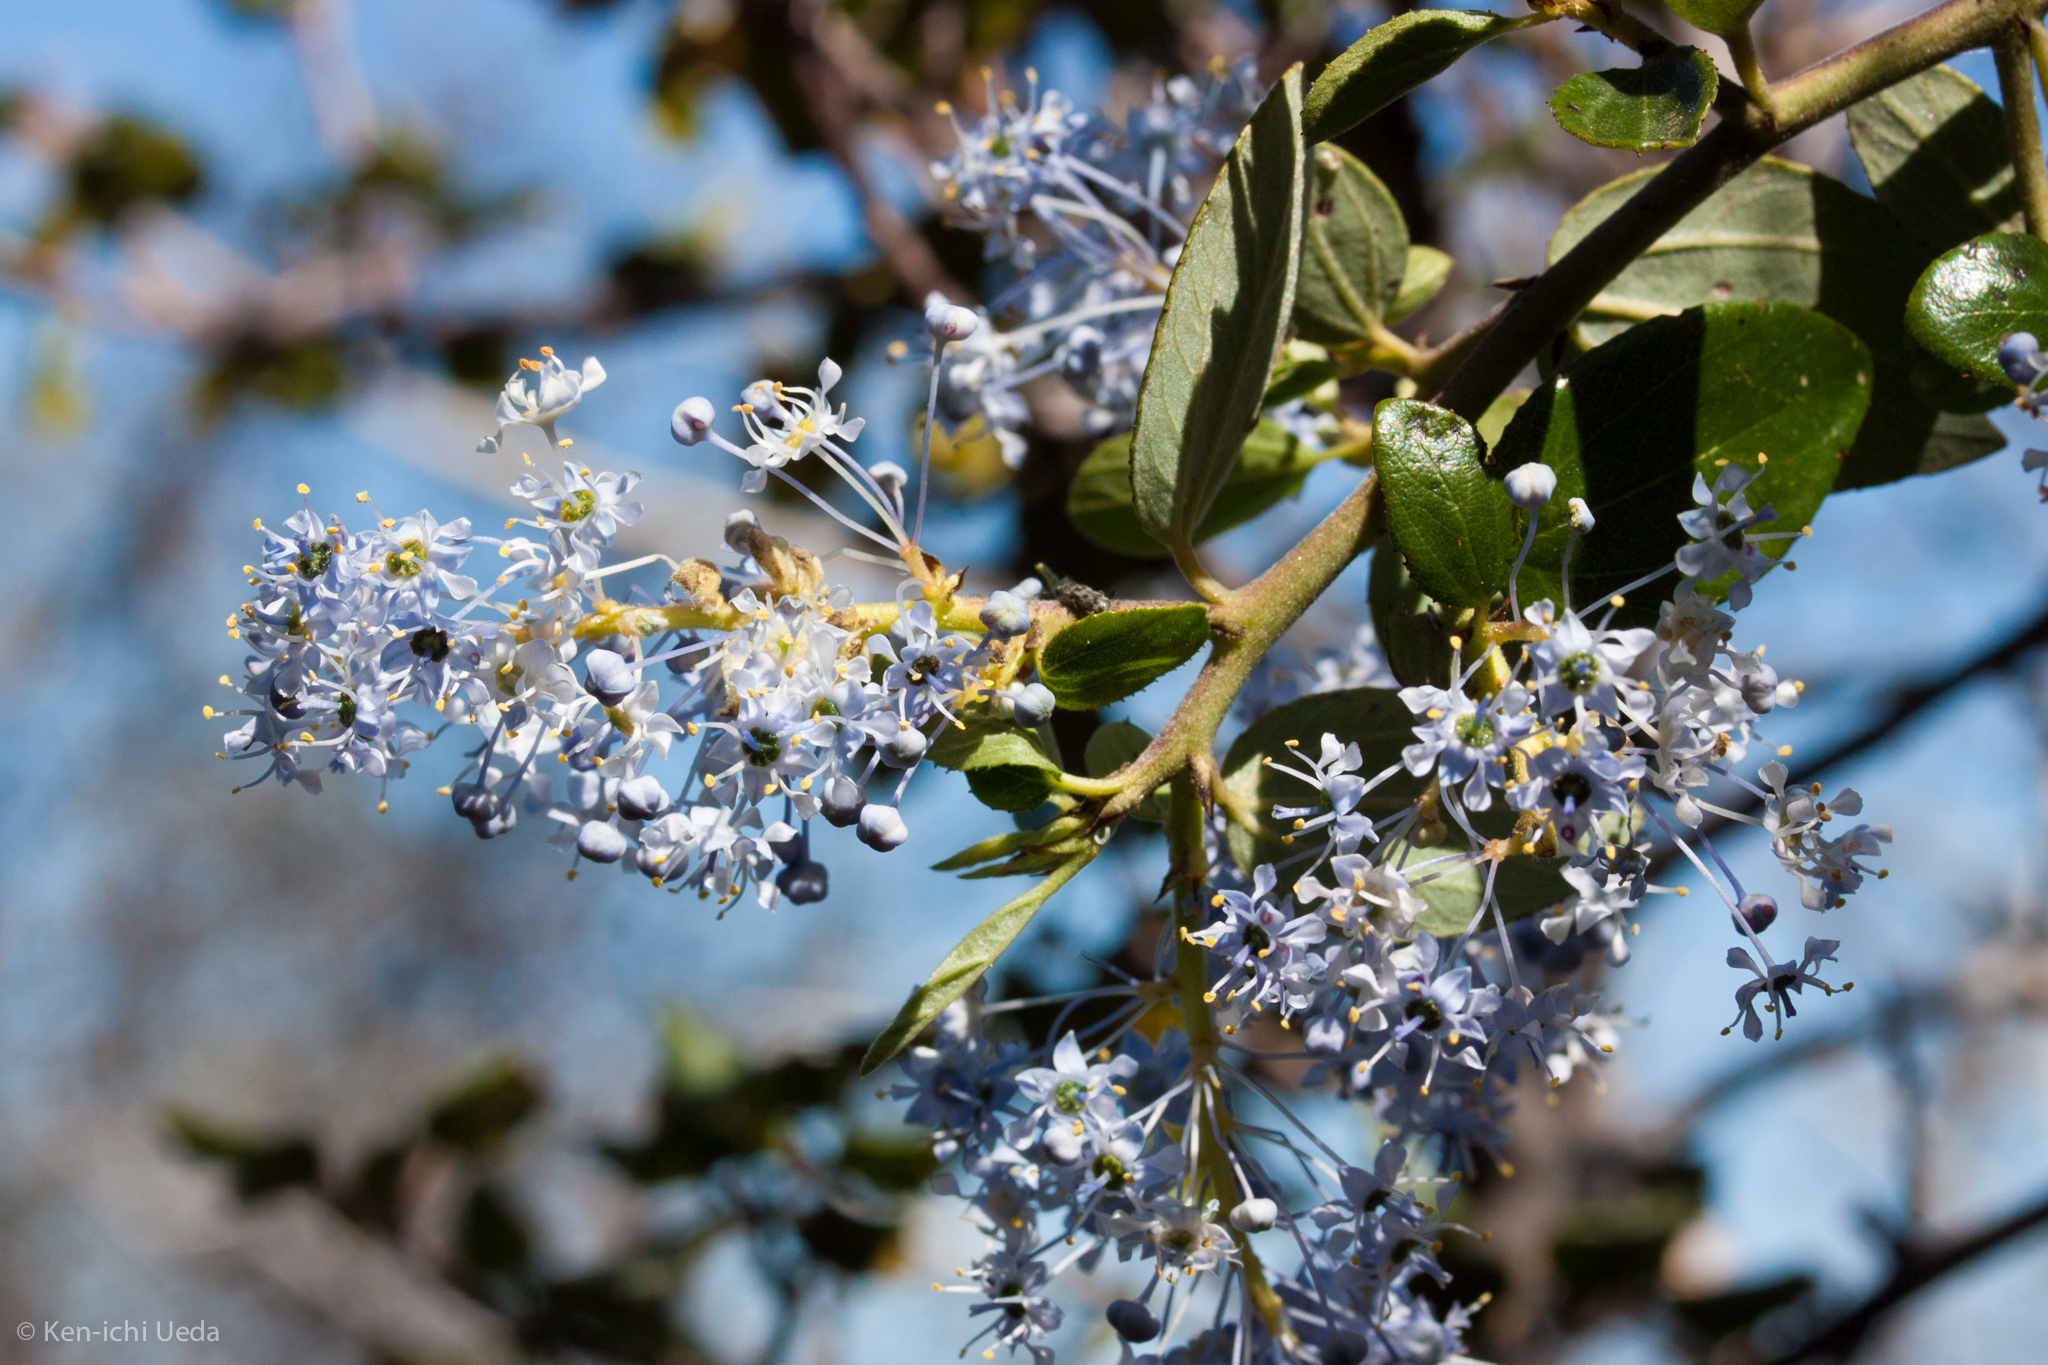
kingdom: Plantae
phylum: Tracheophyta
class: Magnoliopsida
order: Rosales
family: Rhamnaceae
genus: Ceanothus
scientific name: Ceanothus oliganthus
